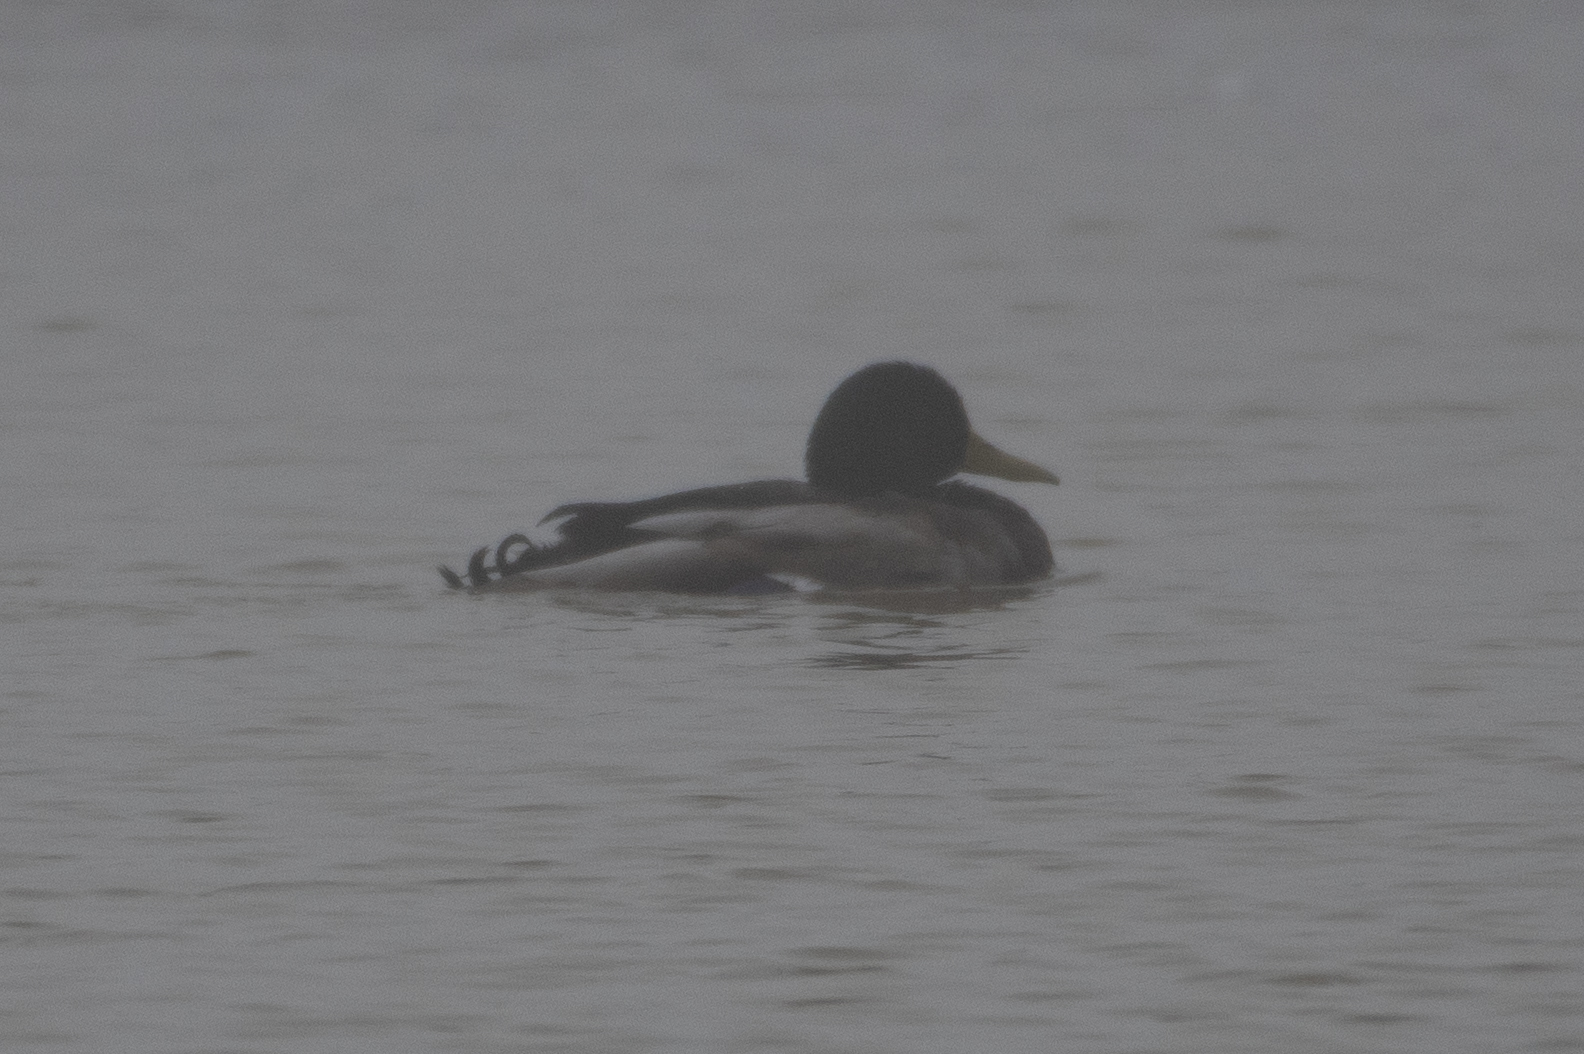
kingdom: Animalia
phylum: Chordata
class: Aves
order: Anseriformes
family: Anatidae
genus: Anas
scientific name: Anas platyrhynchos
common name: Mallard
